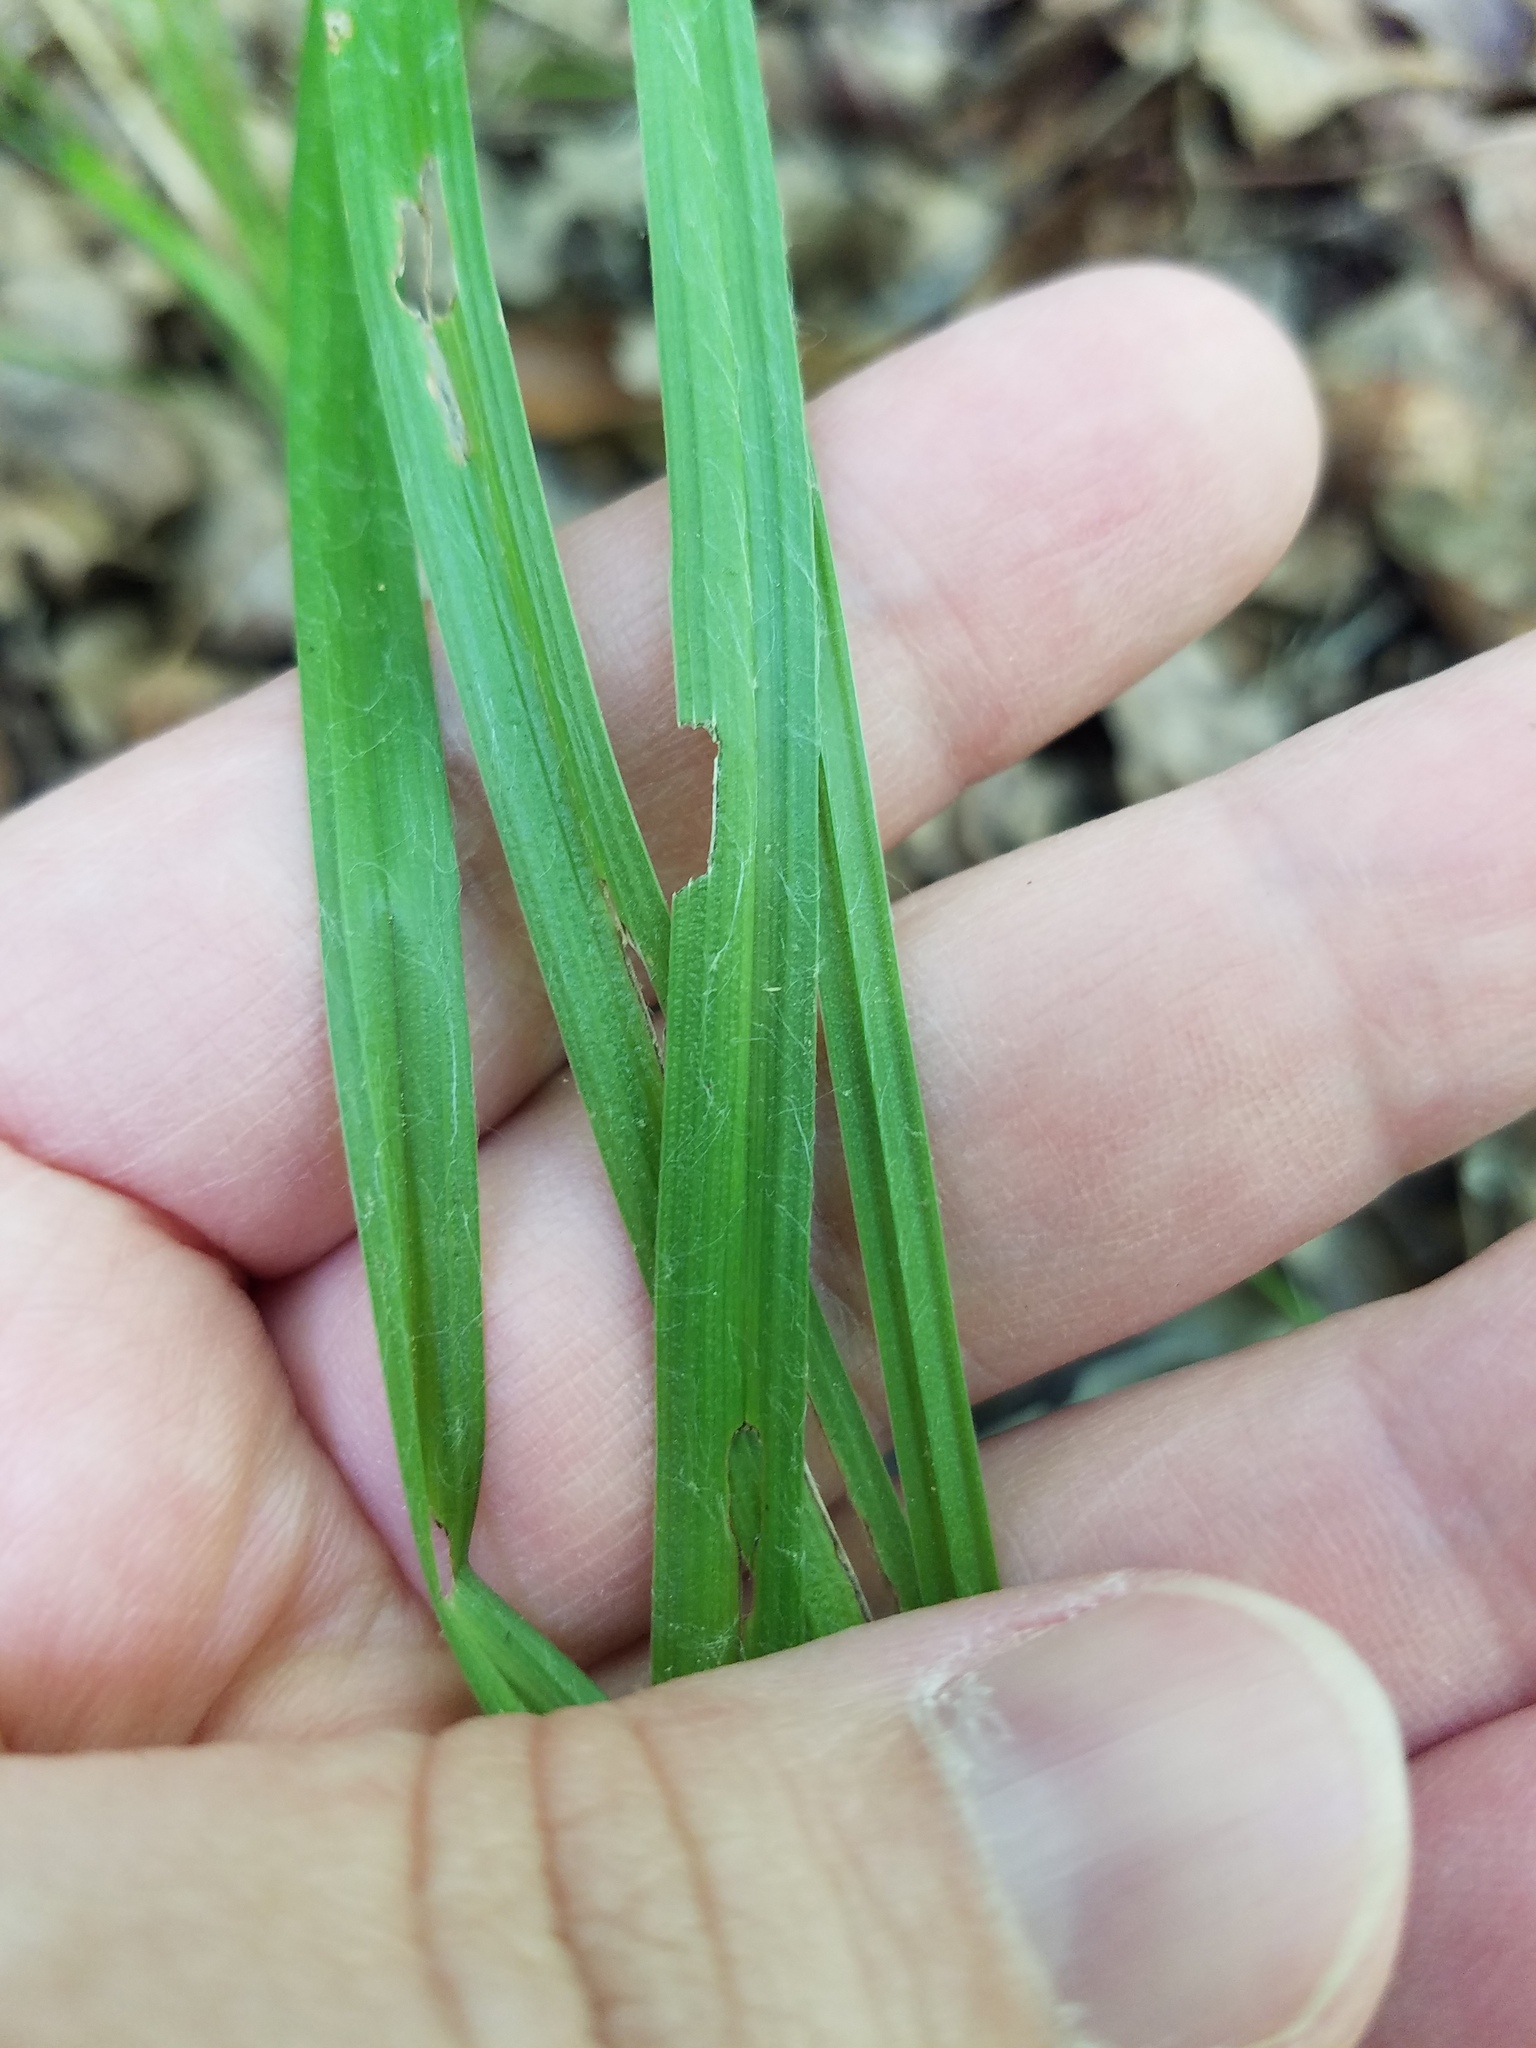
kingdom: Plantae
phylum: Tracheophyta
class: Liliopsida
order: Asparagales
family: Hypoxidaceae
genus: Hypoxis
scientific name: Hypoxis hirsuta
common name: Common goldstar
